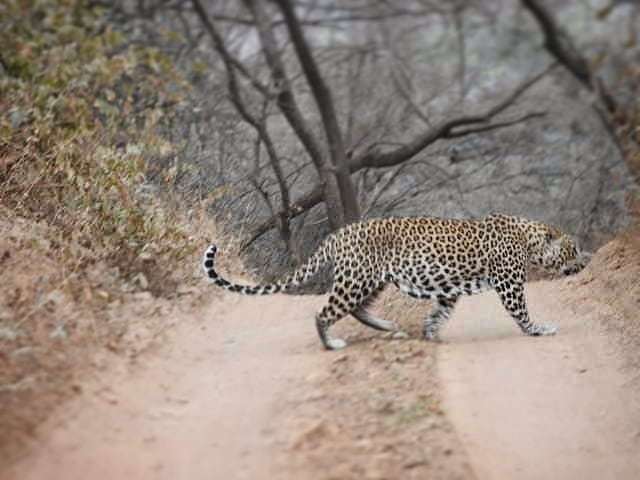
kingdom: Animalia
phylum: Chordata
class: Mammalia
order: Carnivora
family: Felidae
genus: Panthera
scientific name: Panthera pardus
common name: Leopard
